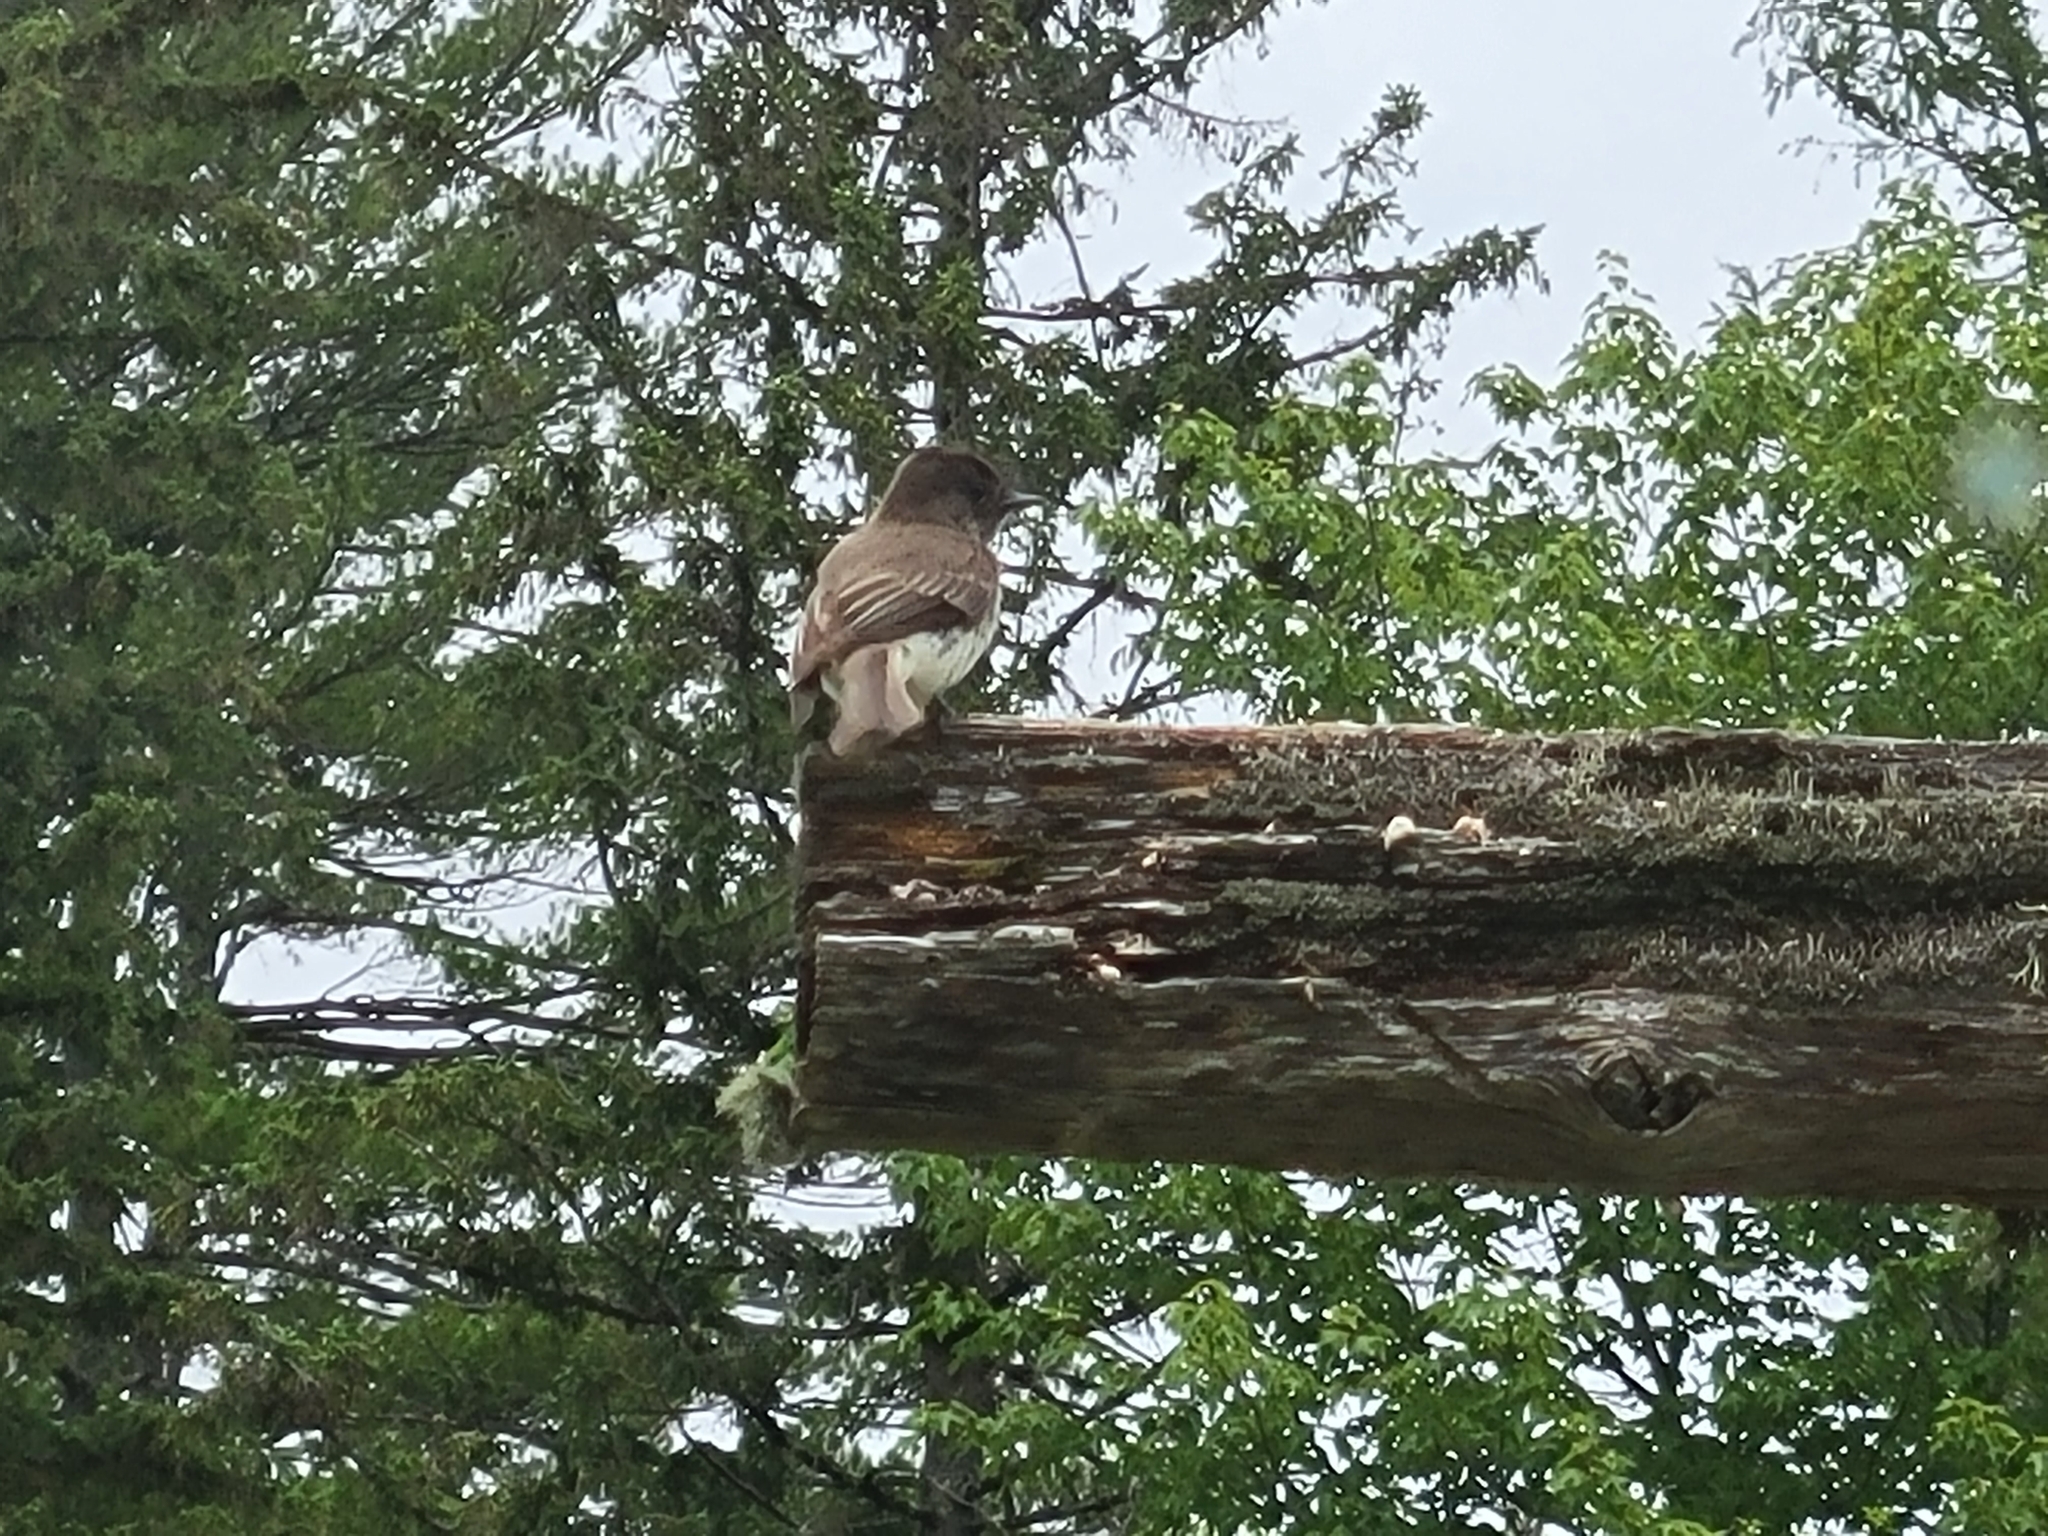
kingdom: Animalia
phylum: Chordata
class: Aves
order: Passeriformes
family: Tyrannidae
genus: Sayornis
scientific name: Sayornis phoebe
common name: Eastern phoebe
